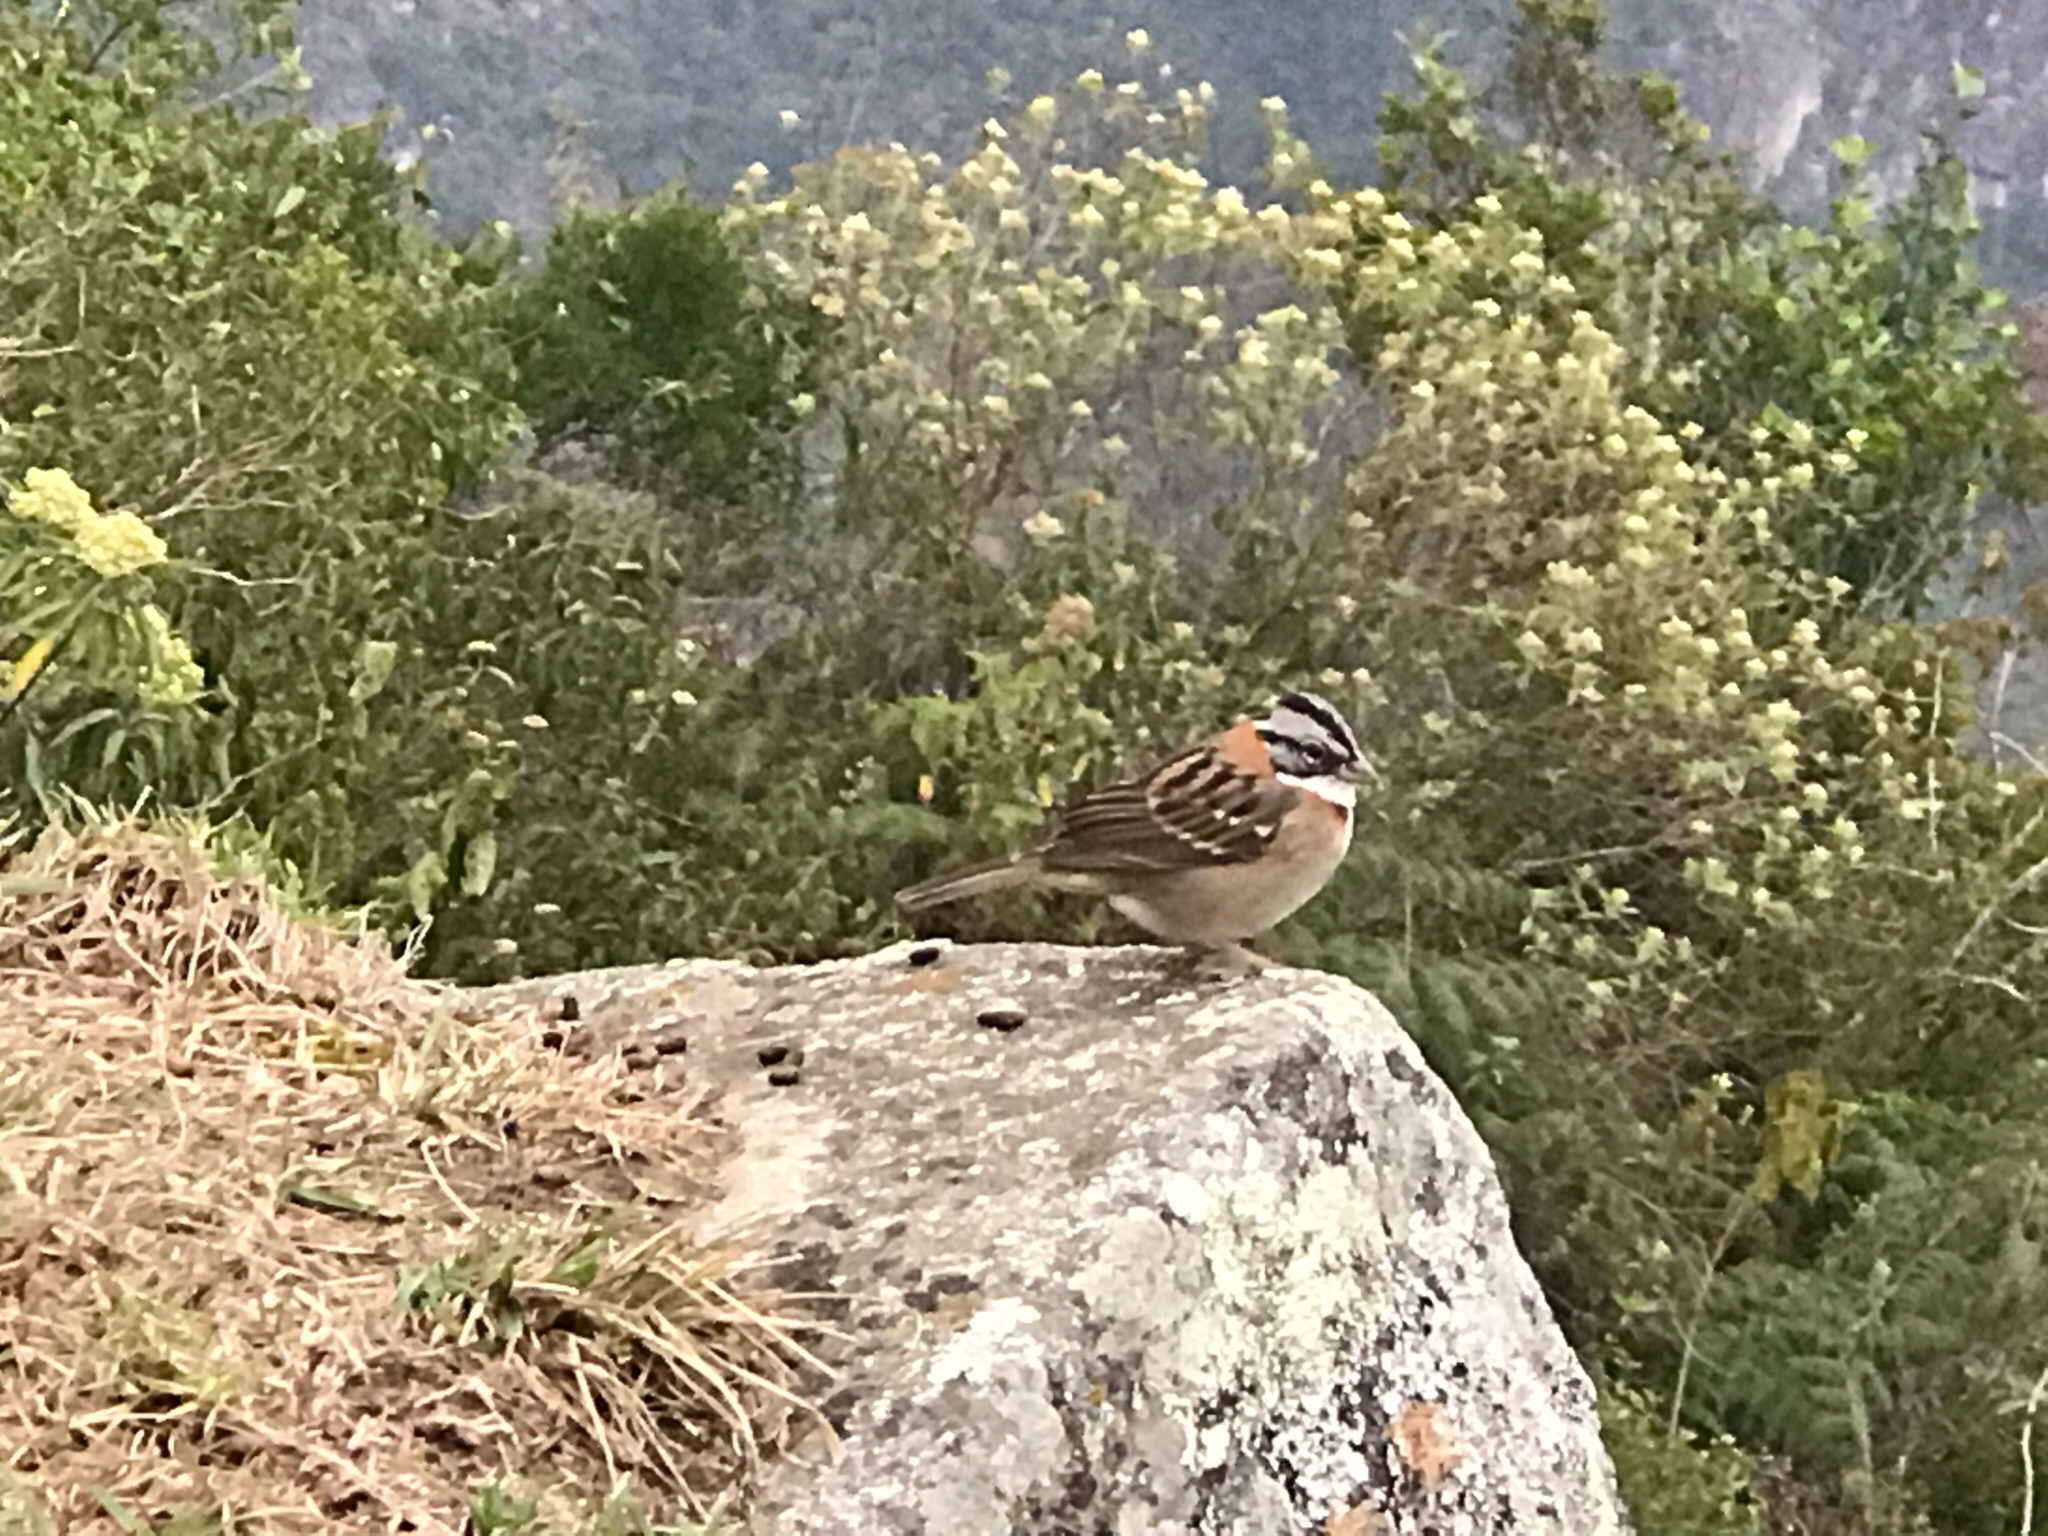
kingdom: Animalia
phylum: Chordata
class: Aves
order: Passeriformes
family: Passerellidae
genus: Zonotrichia
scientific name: Zonotrichia capensis
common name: Rufous-collared sparrow
